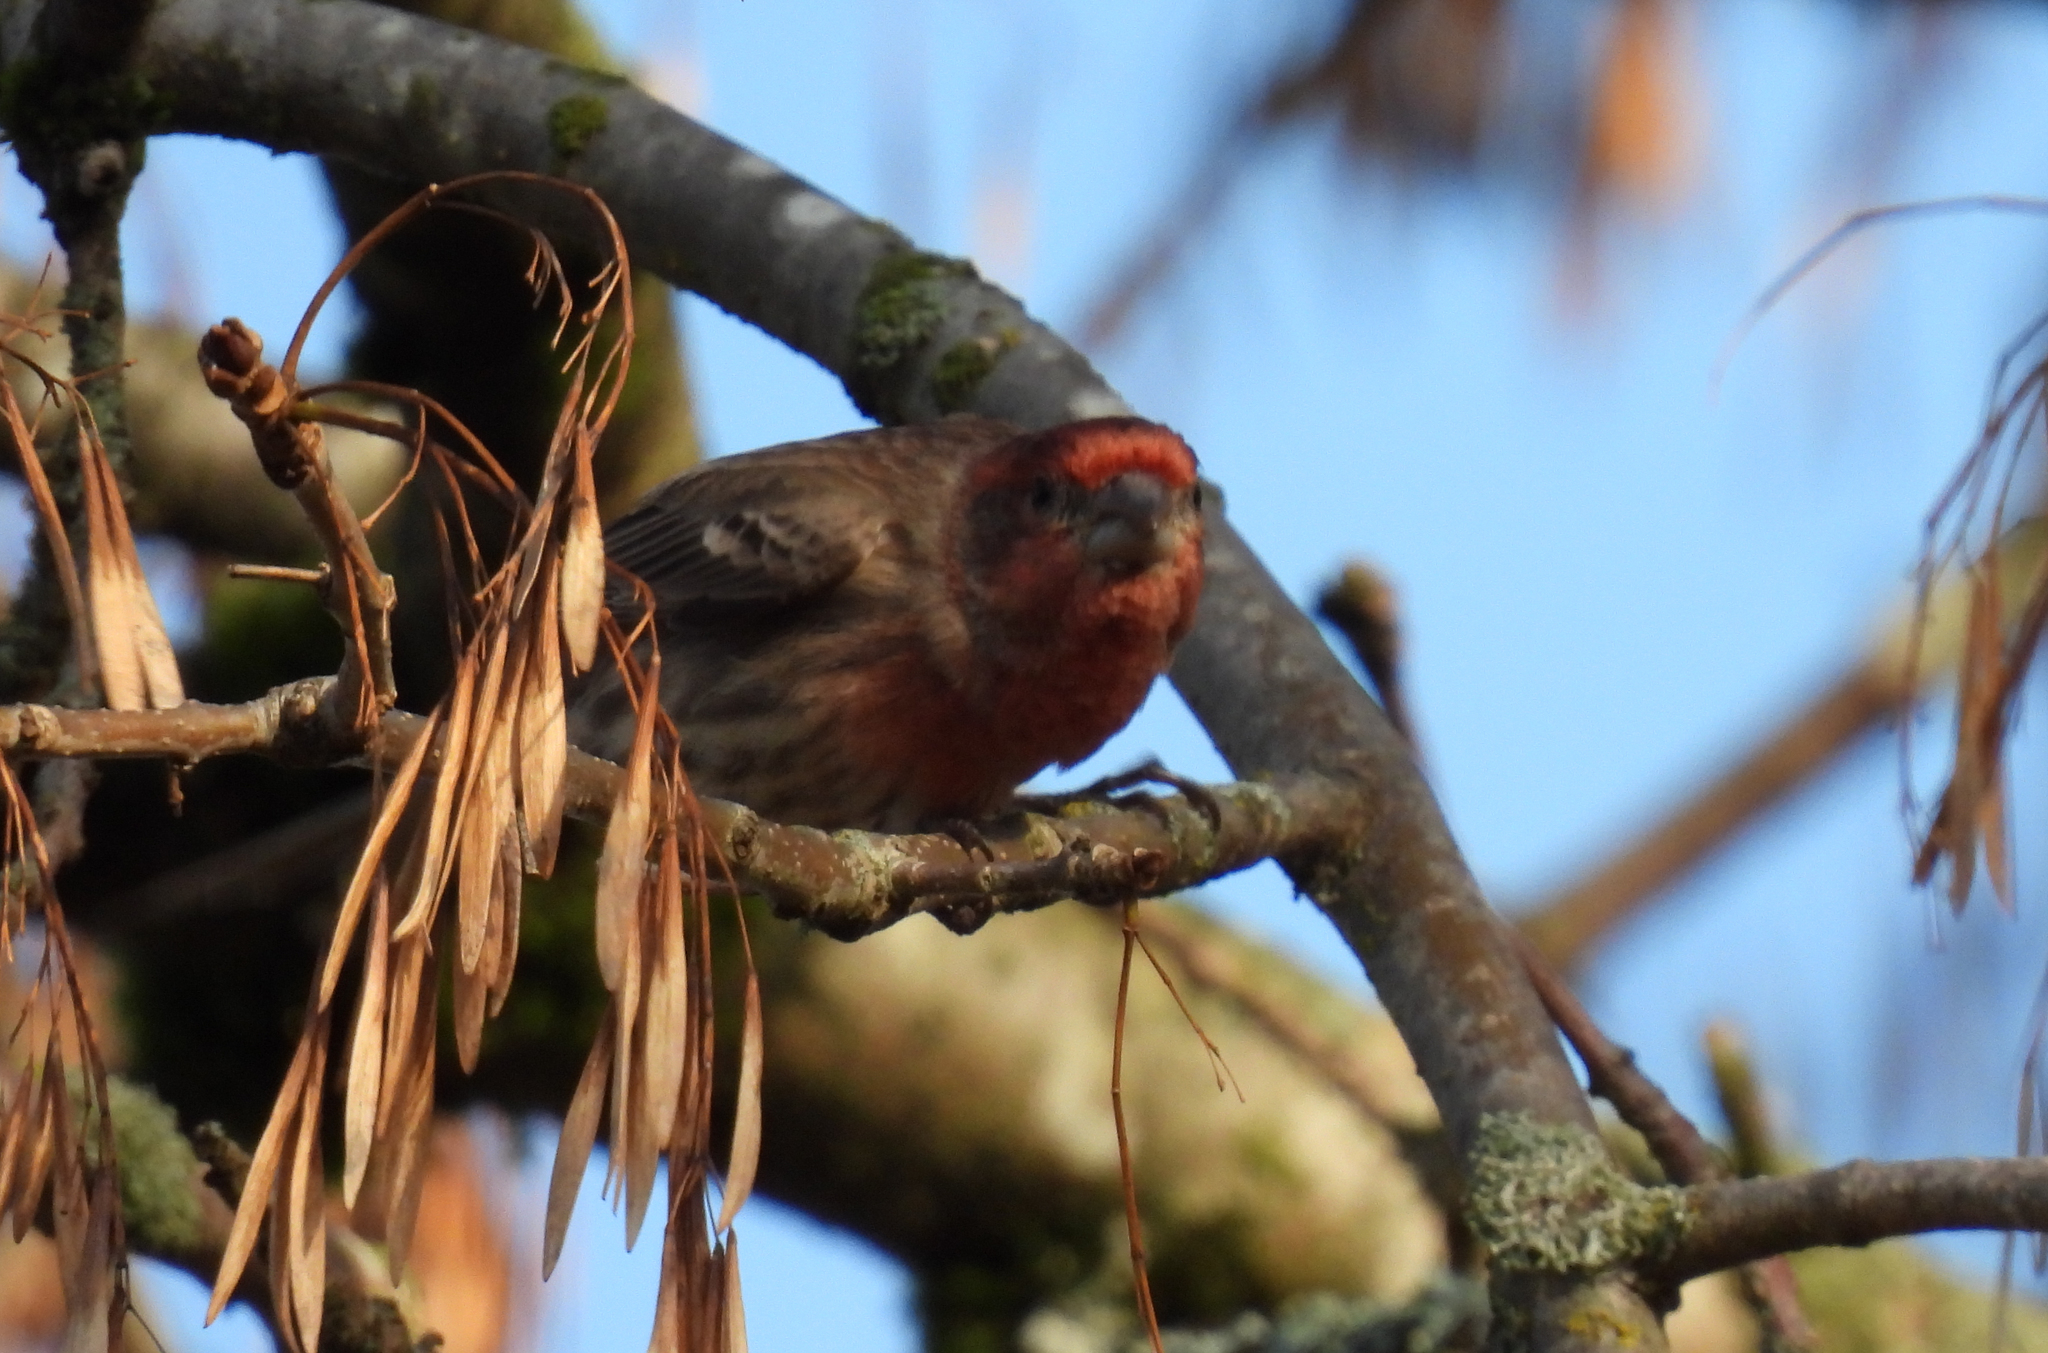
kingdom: Animalia
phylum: Chordata
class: Aves
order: Passeriformes
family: Fringillidae
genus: Haemorhous
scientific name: Haemorhous mexicanus
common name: House finch
